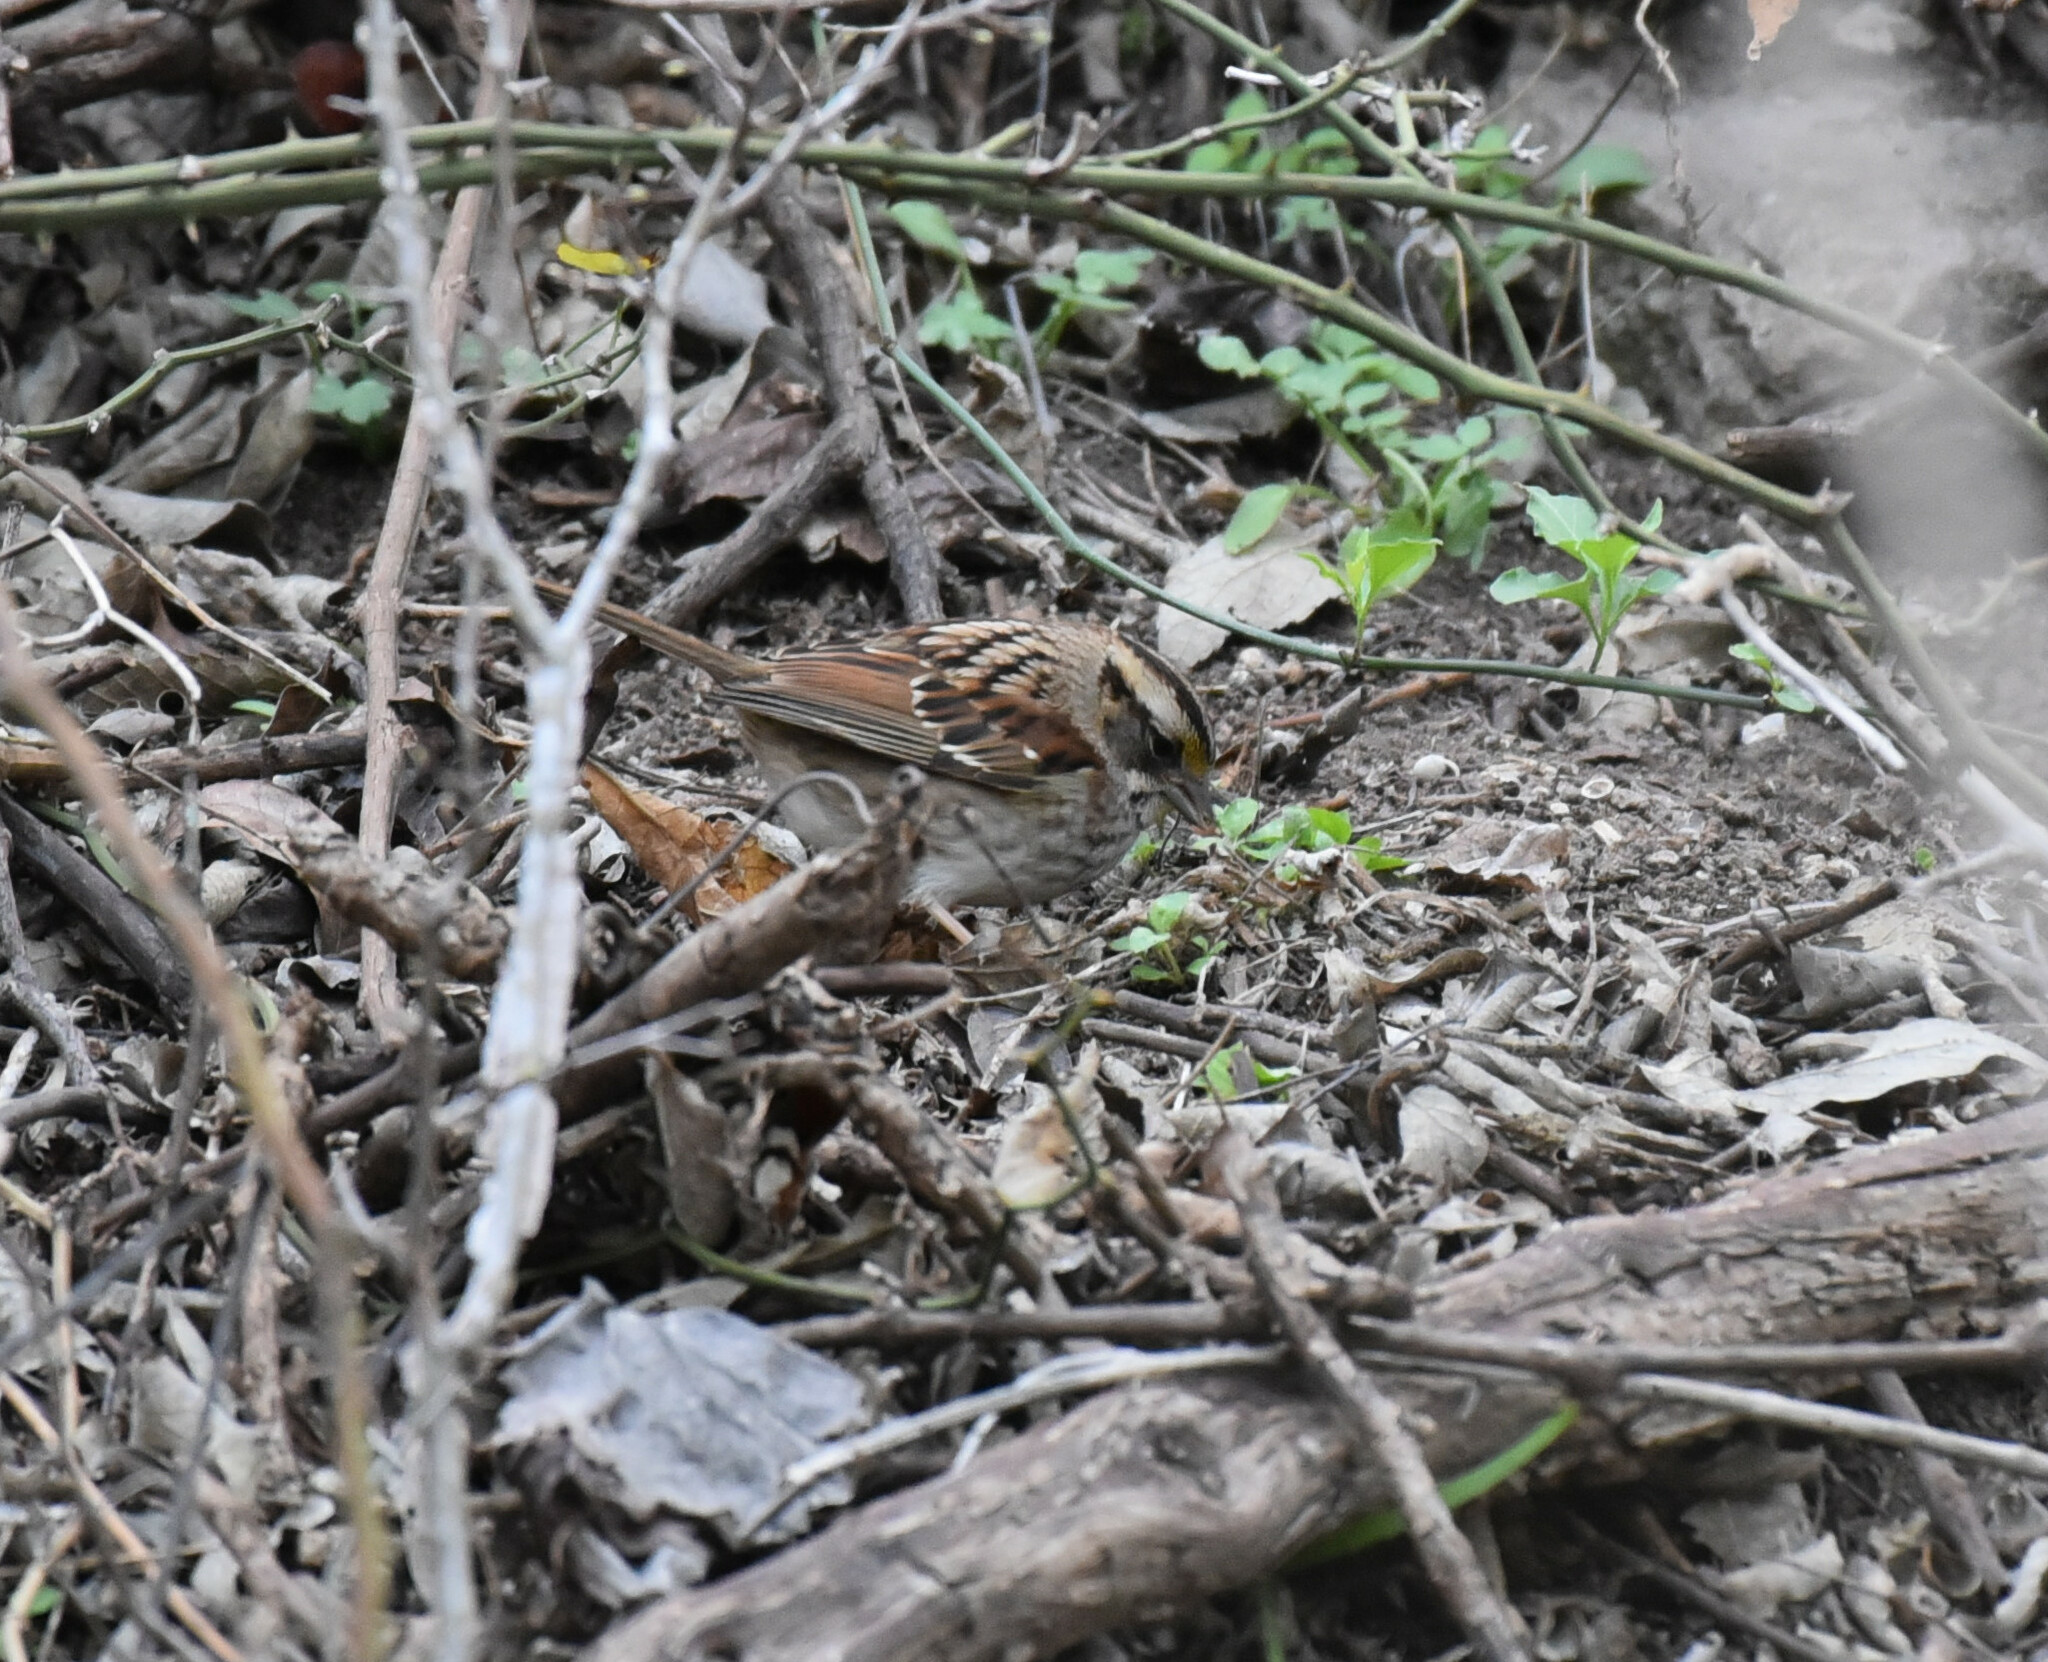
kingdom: Animalia
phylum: Chordata
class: Aves
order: Passeriformes
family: Passerellidae
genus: Zonotrichia
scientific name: Zonotrichia albicollis
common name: White-throated sparrow
